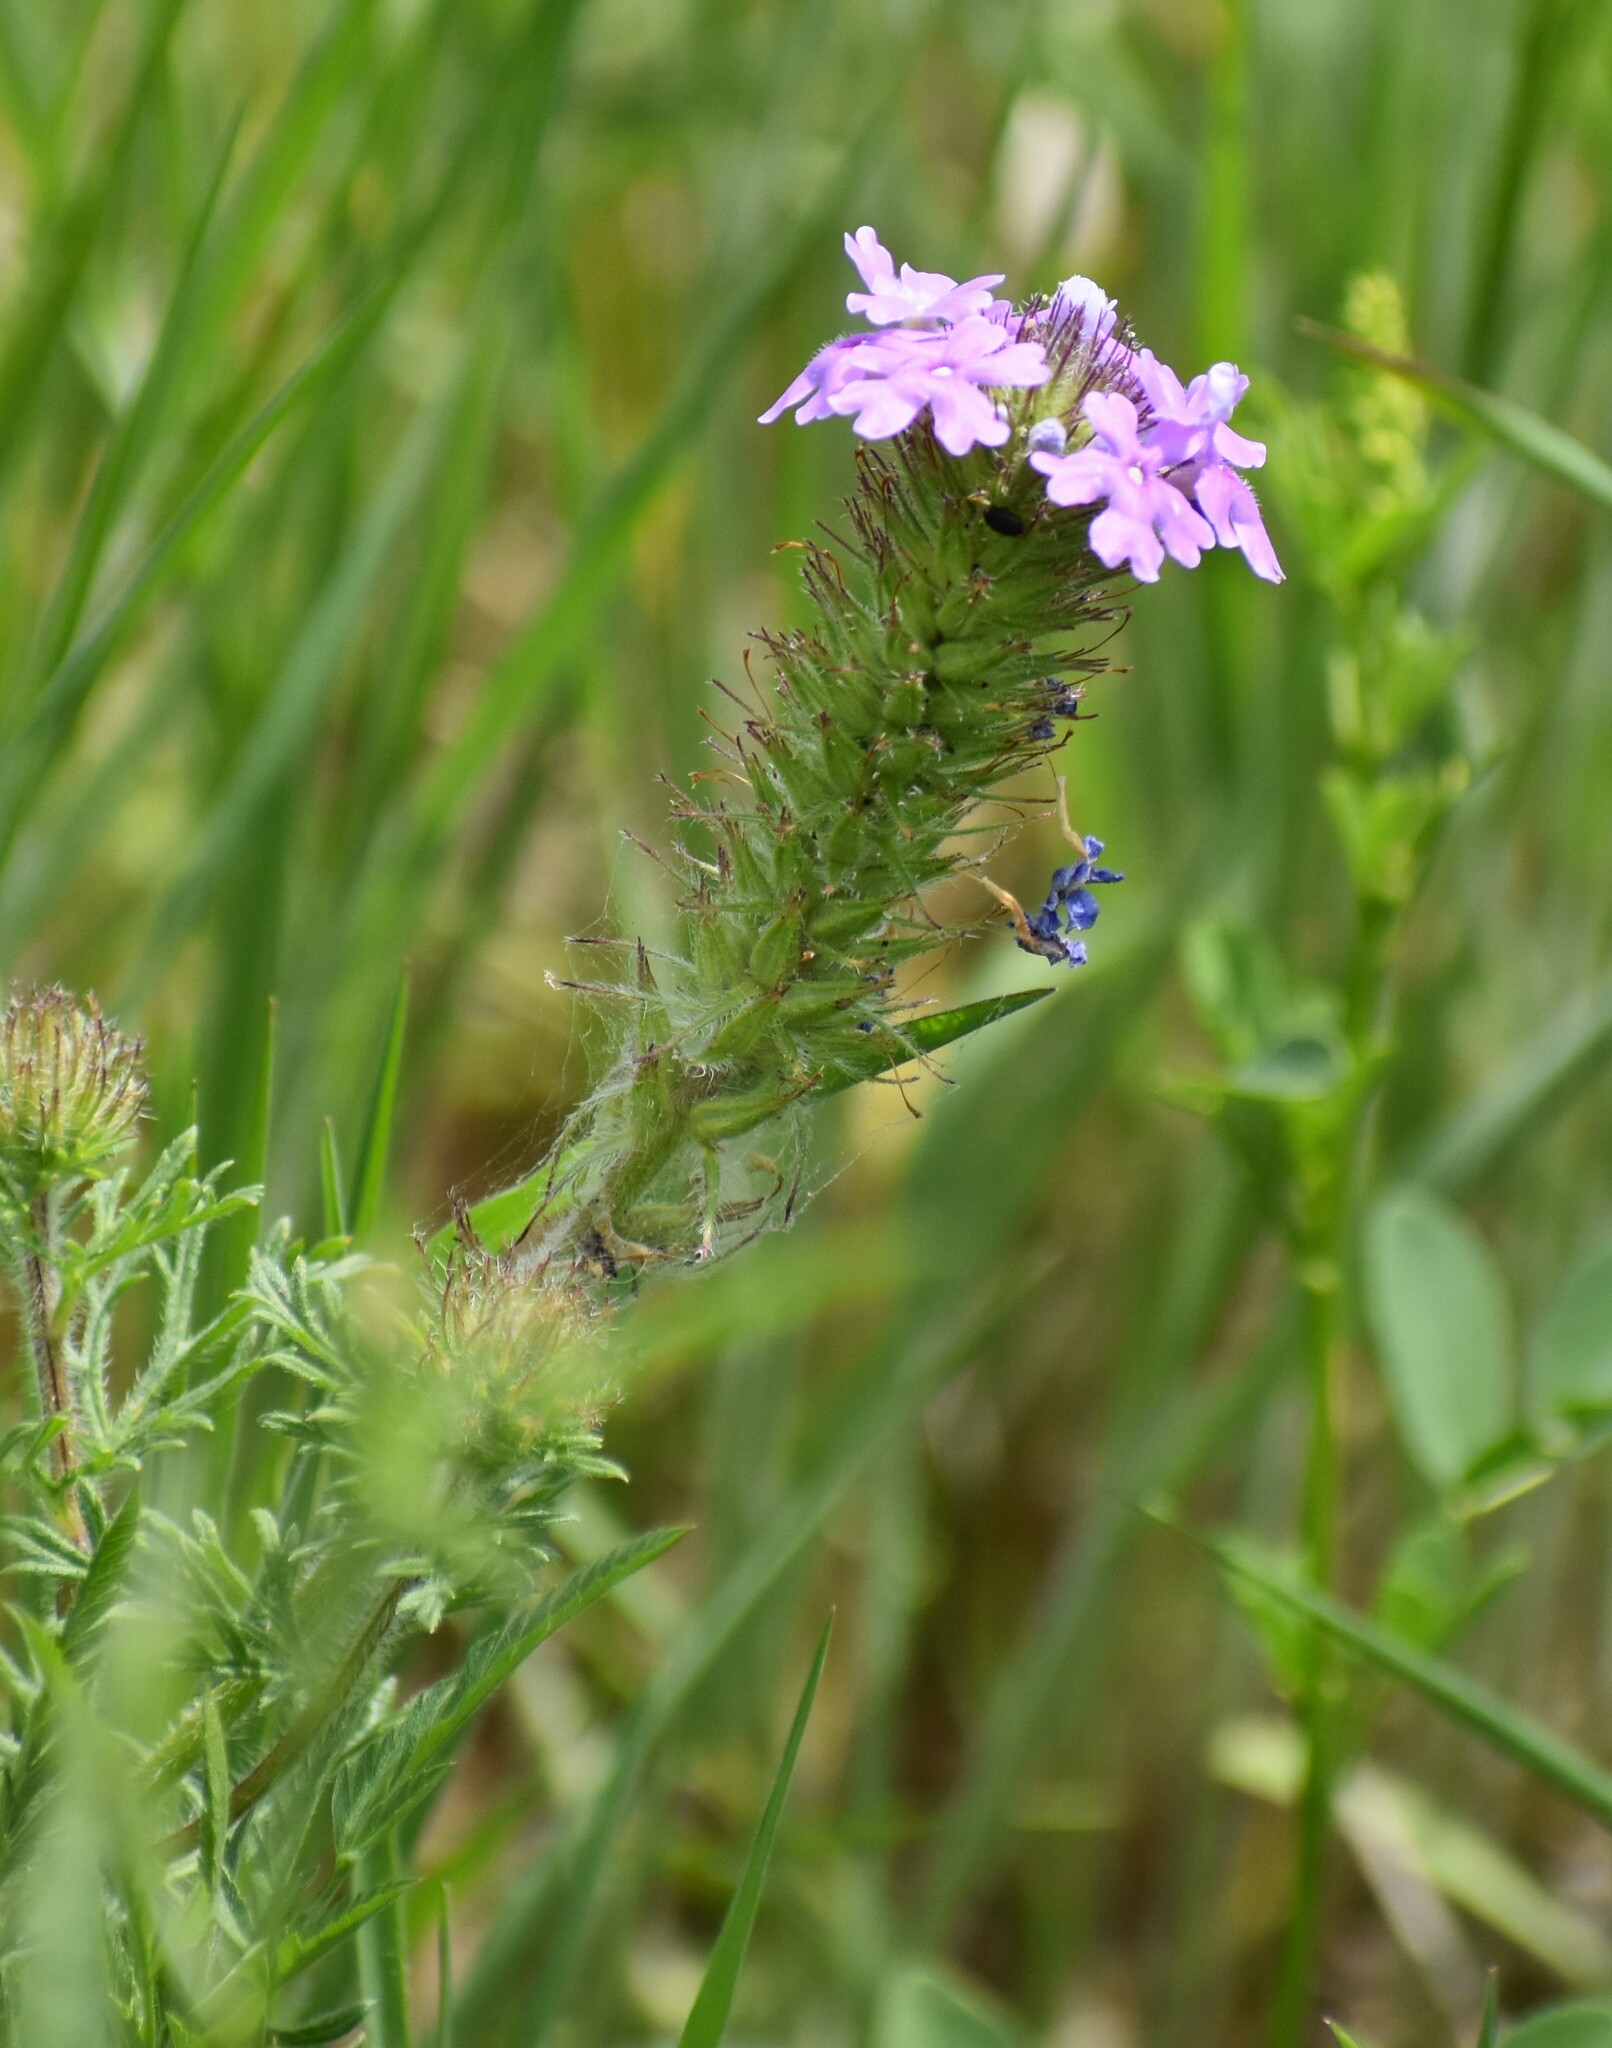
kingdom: Plantae
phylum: Tracheophyta
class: Magnoliopsida
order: Lamiales
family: Verbenaceae
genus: Verbena
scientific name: Verbena bipinnatifida
